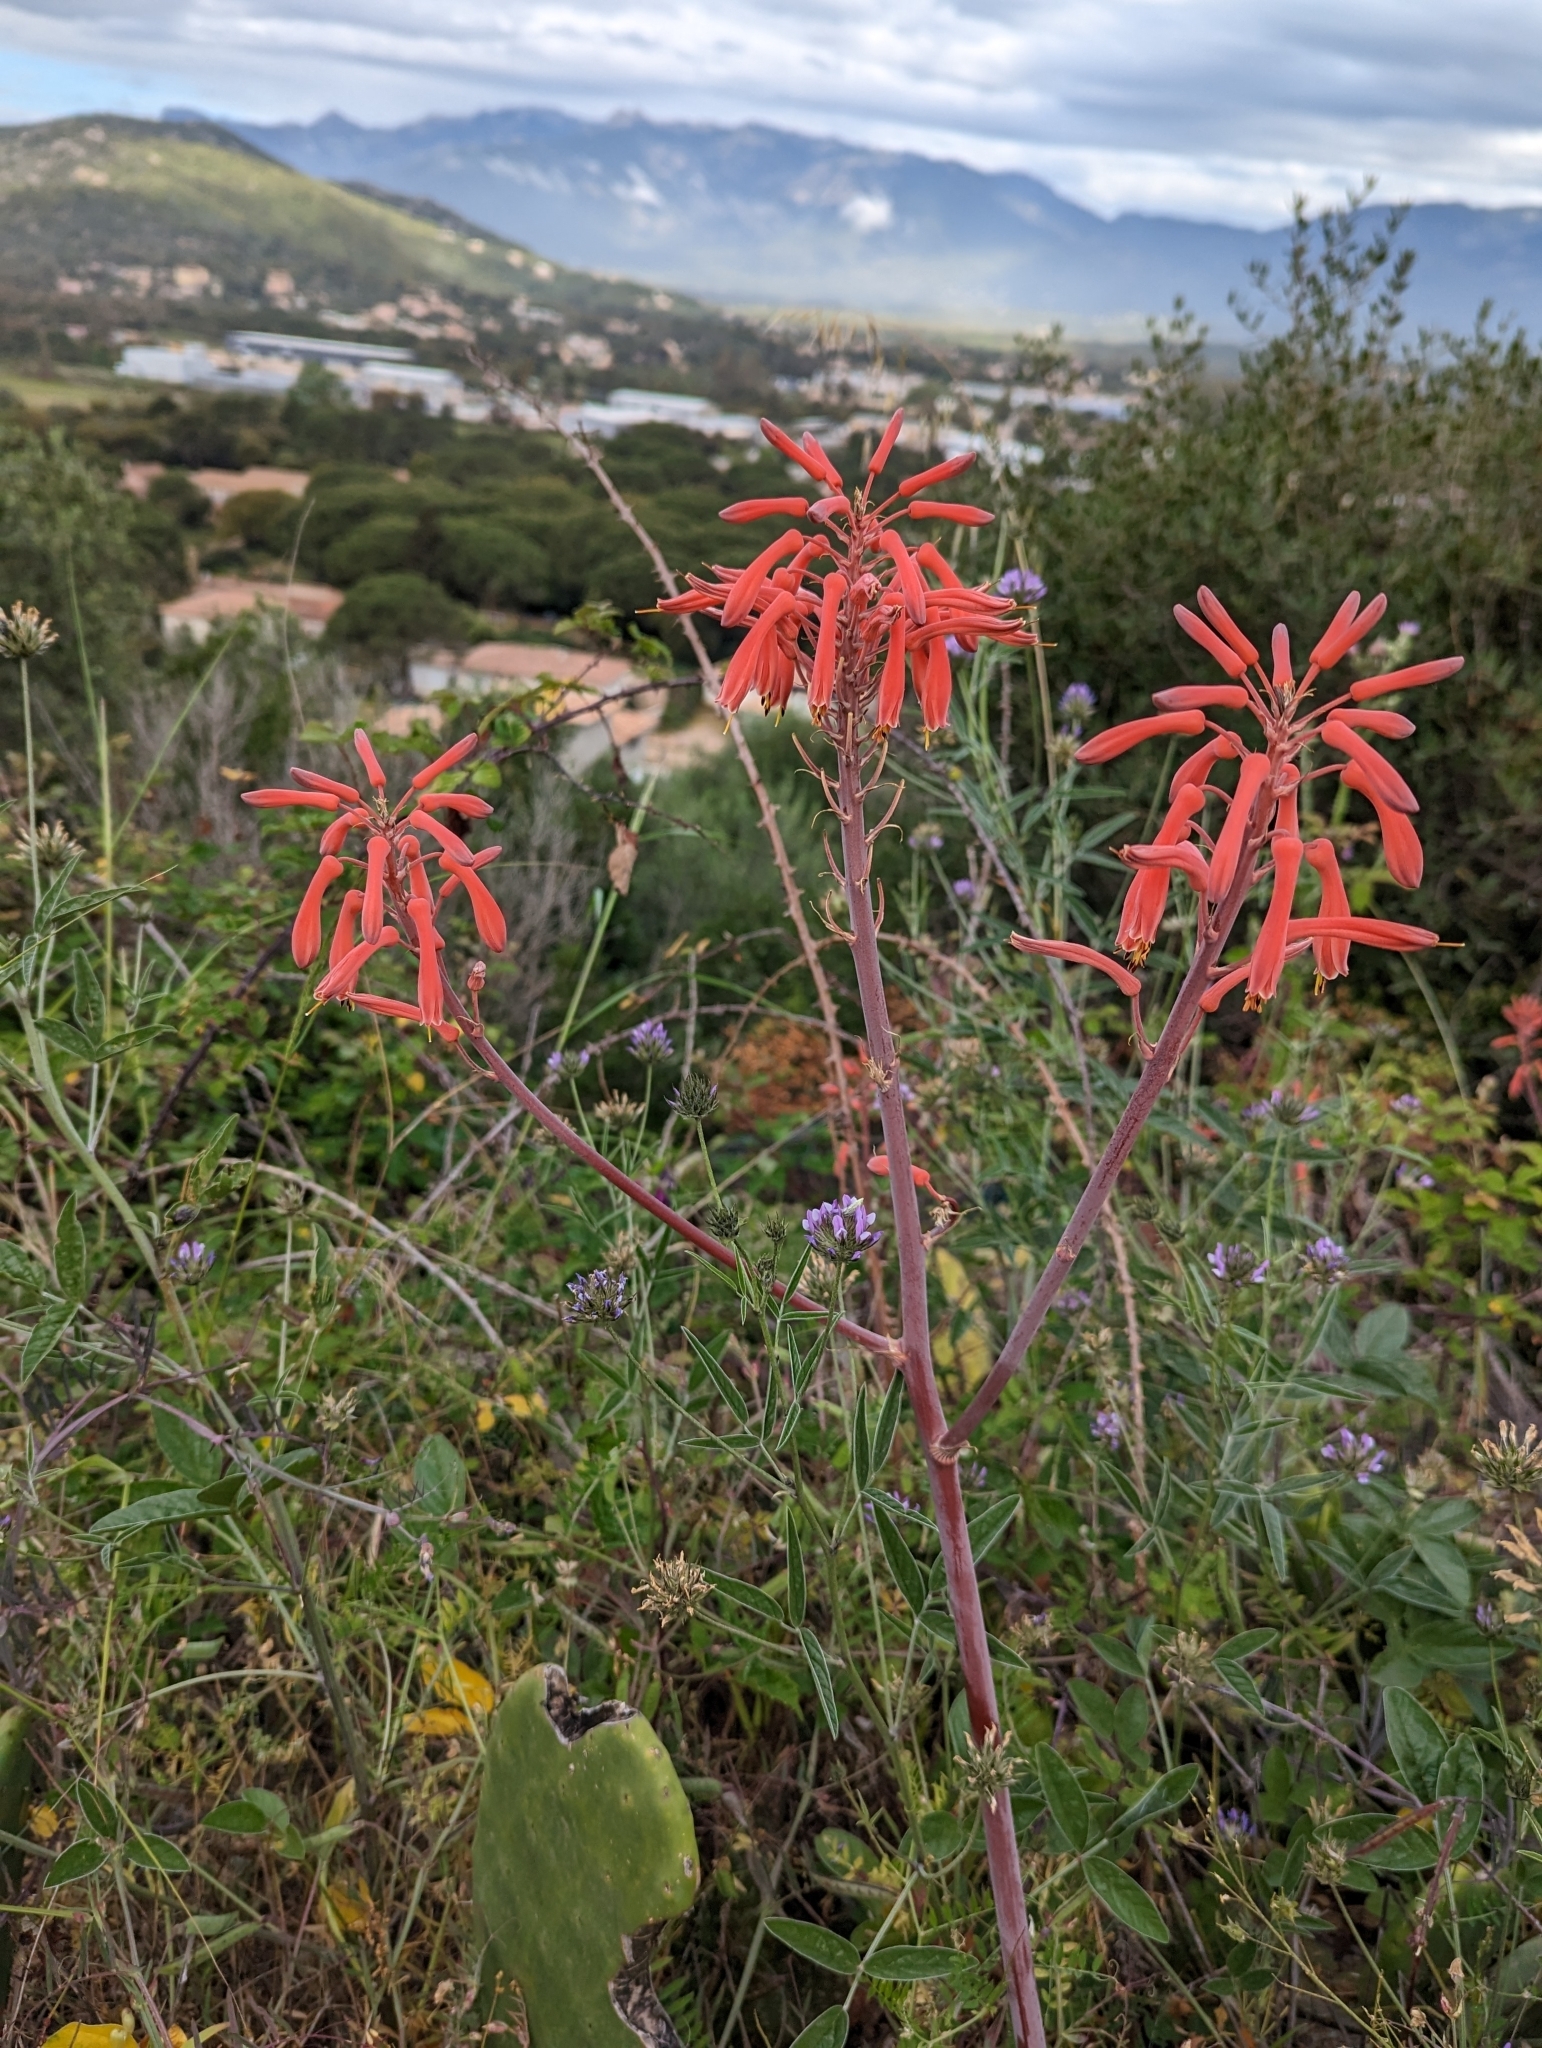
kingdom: Plantae
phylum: Tracheophyta
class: Liliopsida
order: Asparagales
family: Asphodelaceae
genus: Aloe
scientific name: Aloe maculata
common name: Broadleaf aloe
